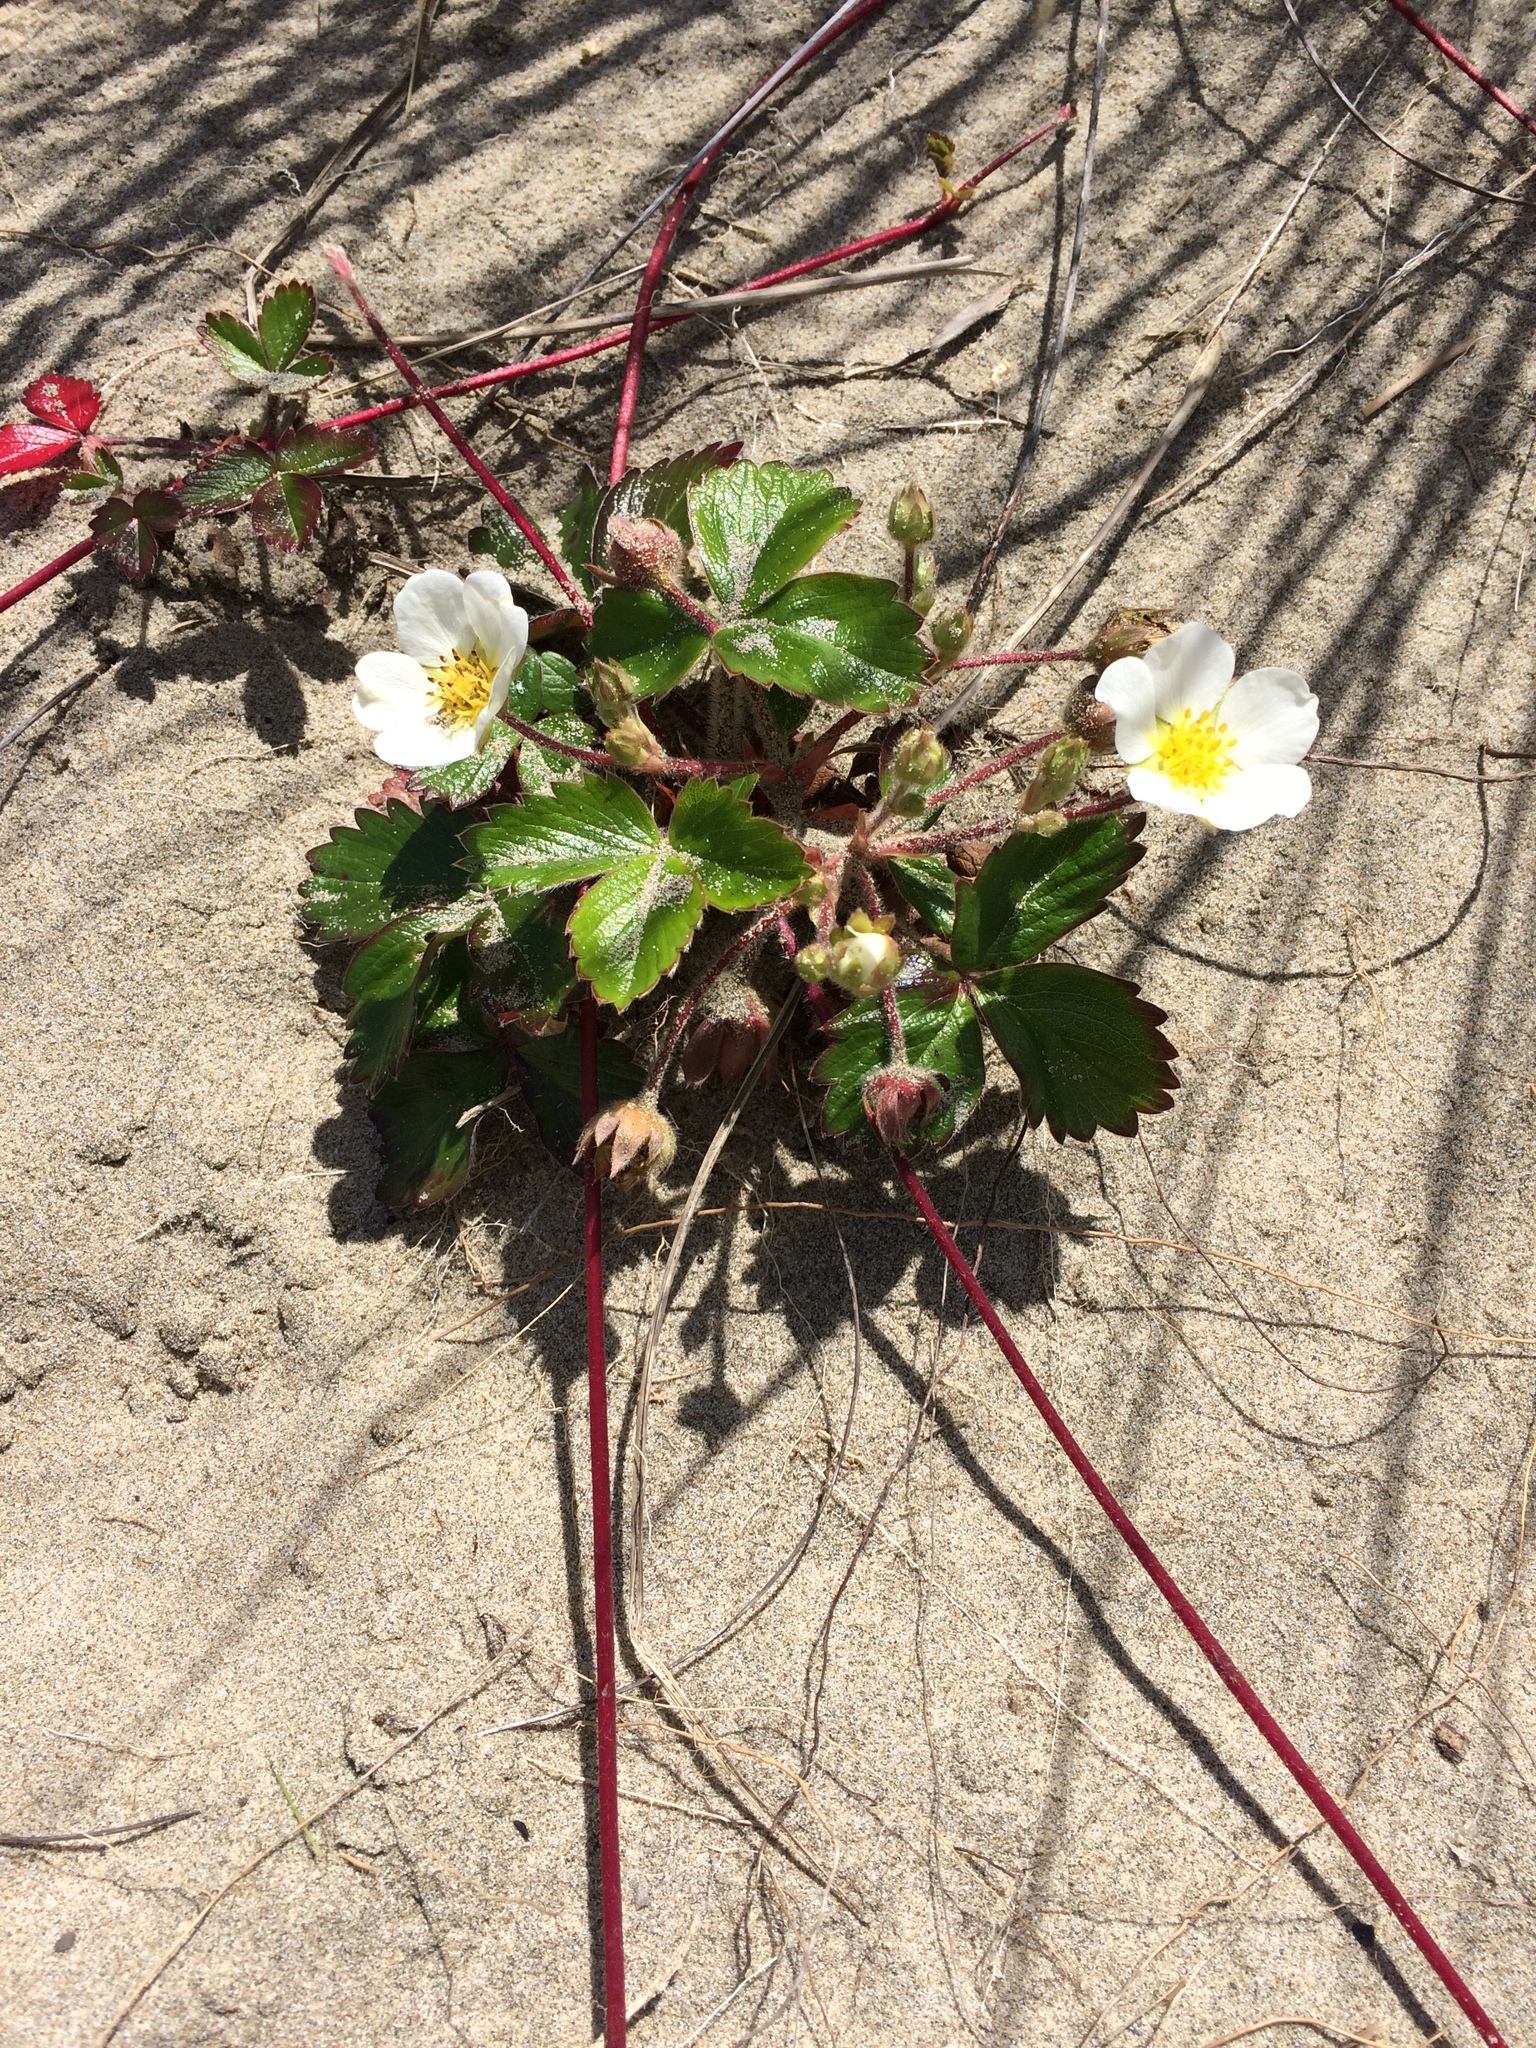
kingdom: Plantae
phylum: Tracheophyta
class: Magnoliopsida
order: Rosales
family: Rosaceae
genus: Fragaria
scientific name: Fragaria chiloensis
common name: Beach strawberry
